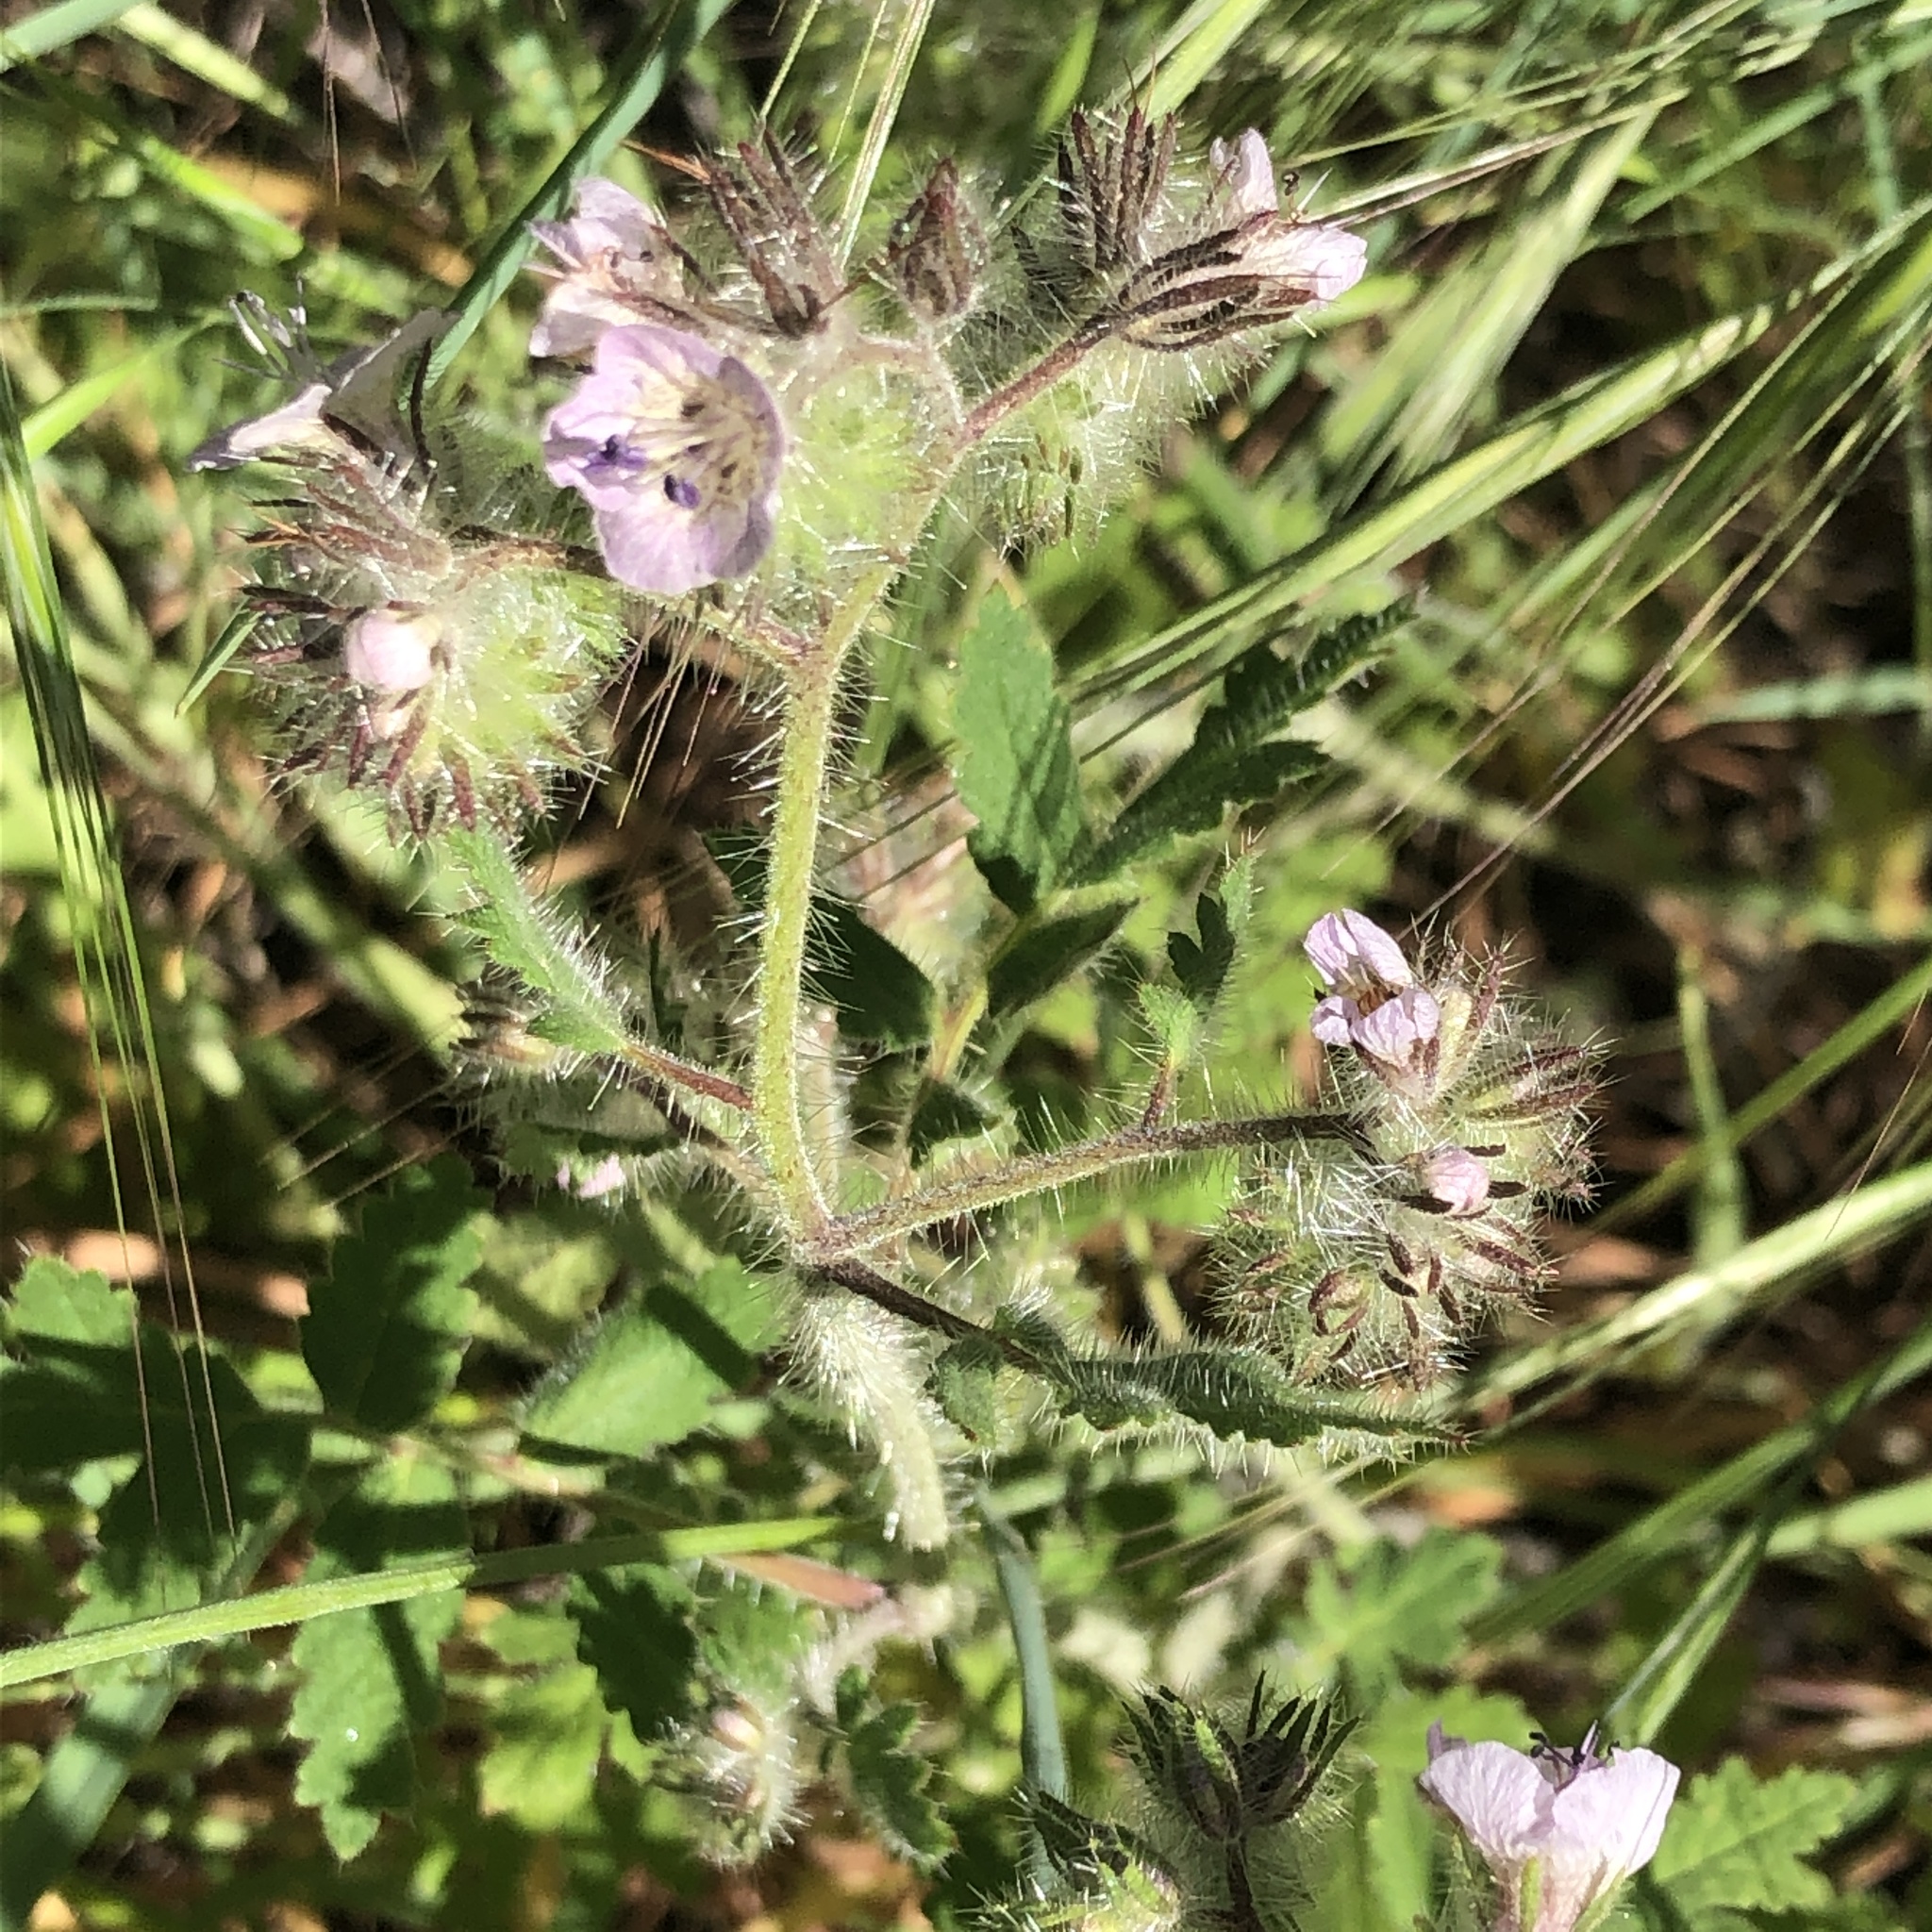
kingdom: Plantae
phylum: Tracheophyta
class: Magnoliopsida
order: Boraginales
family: Hydrophyllaceae
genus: Phacelia
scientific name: Phacelia cicutaria
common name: Caterpillar phacelia
